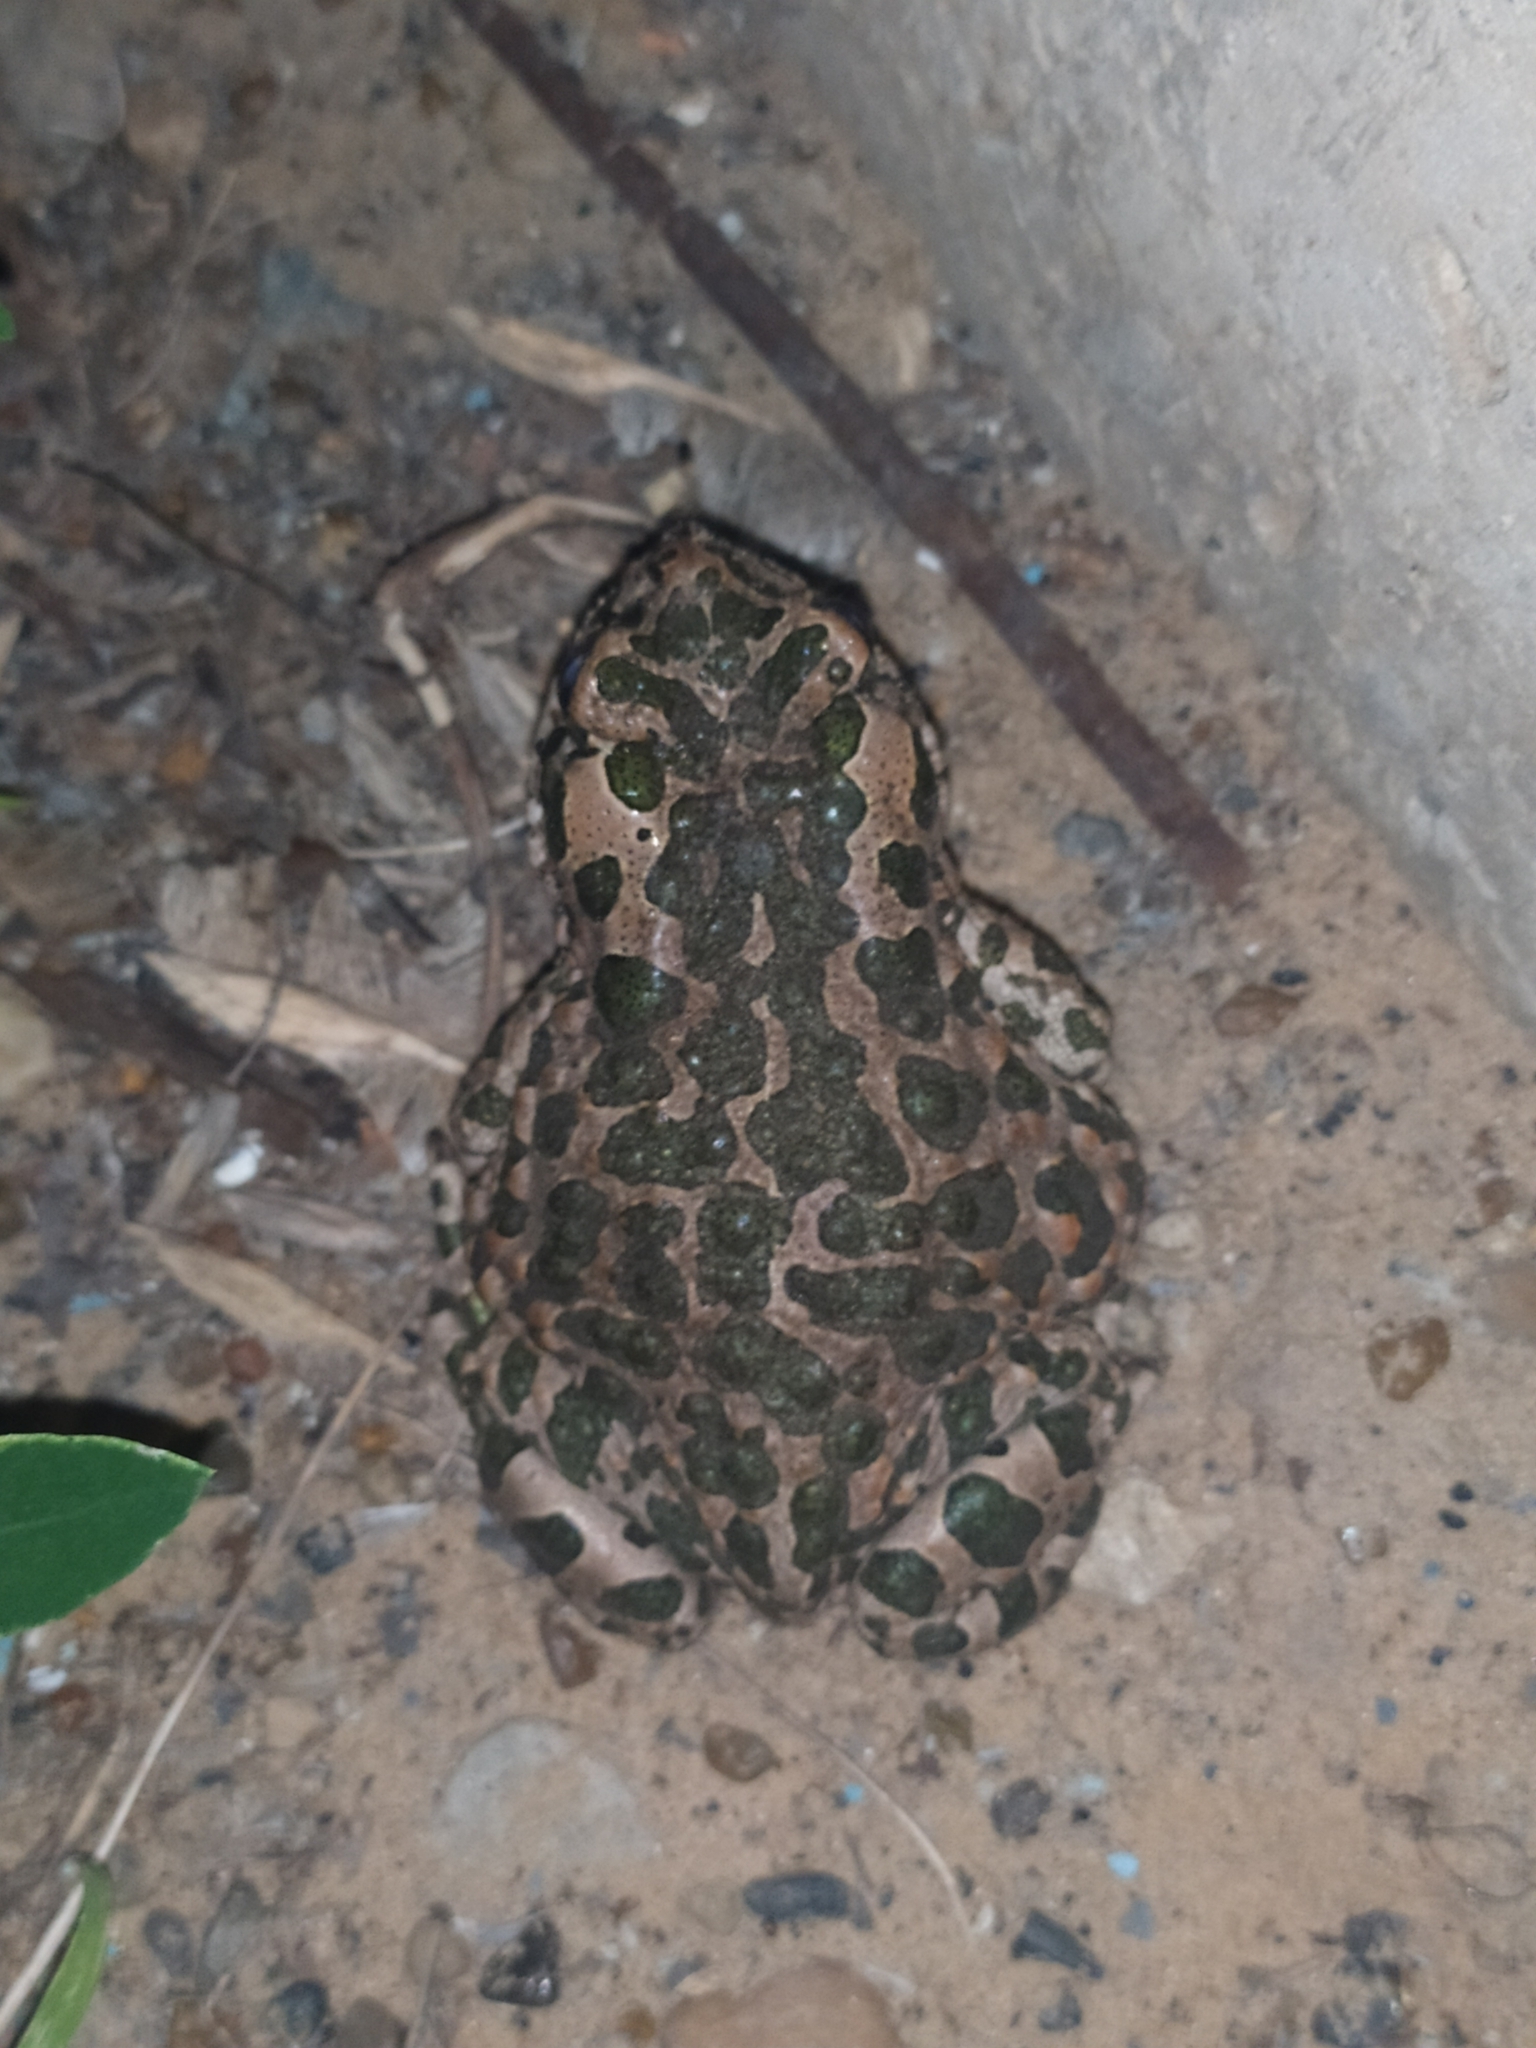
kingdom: Animalia
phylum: Chordata
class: Amphibia
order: Anura
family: Bufonidae
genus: Bufotes
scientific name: Bufotes viridis
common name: European green toad
